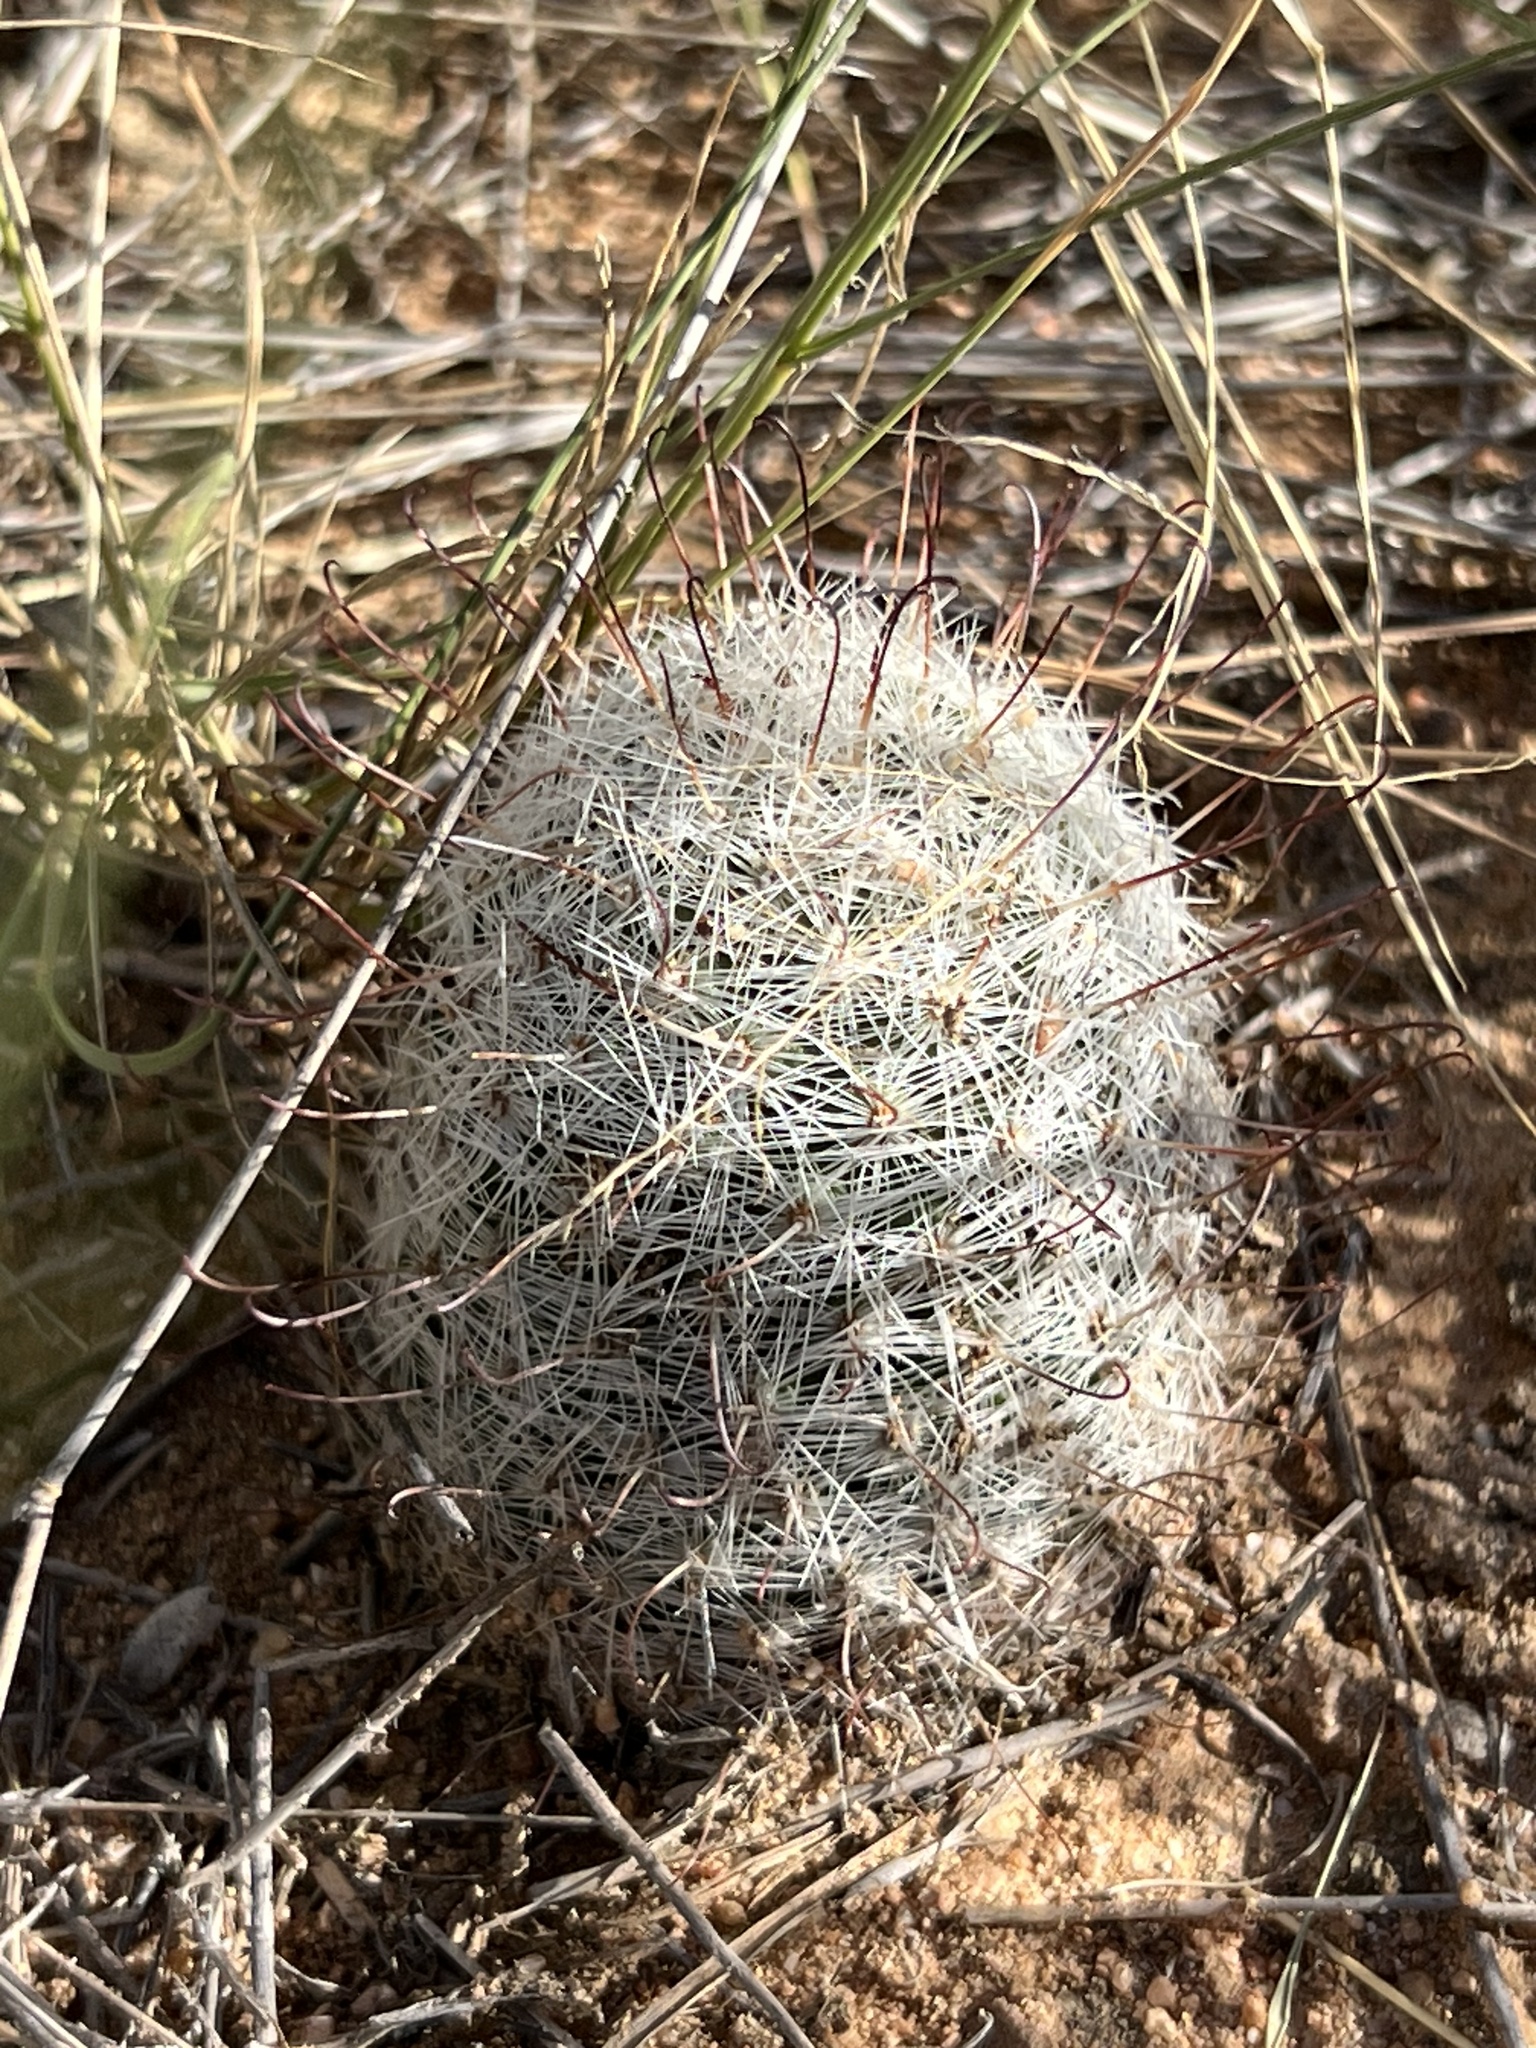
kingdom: Plantae
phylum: Tracheophyta
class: Magnoliopsida
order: Caryophyllales
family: Cactaceae
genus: Cochemiea
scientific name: Cochemiea grahamii
